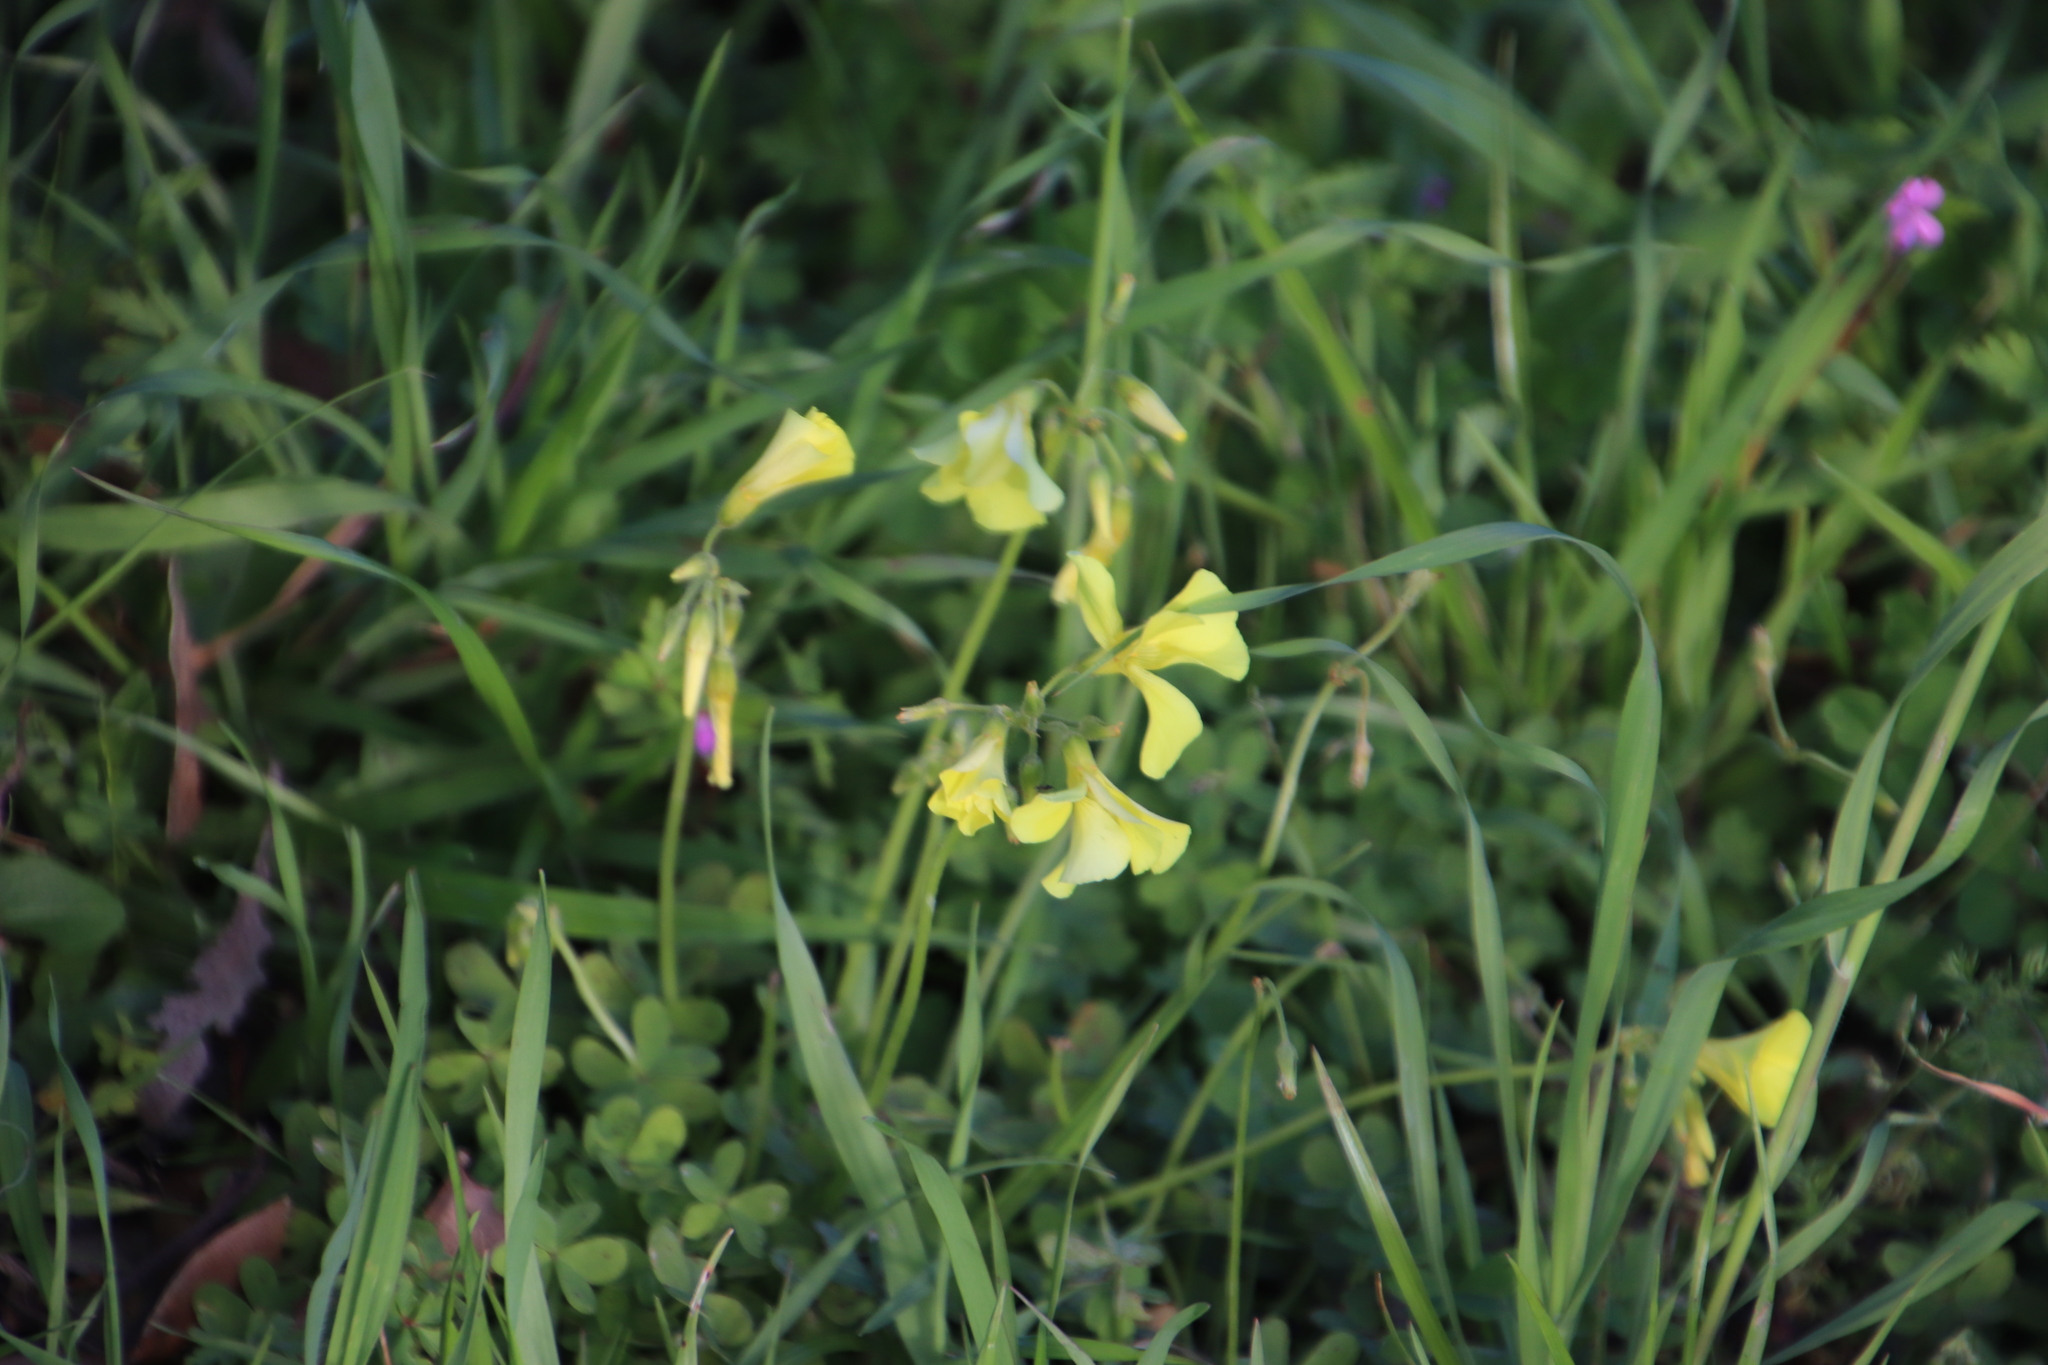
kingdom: Plantae
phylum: Tracheophyta
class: Magnoliopsida
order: Oxalidales
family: Oxalidaceae
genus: Oxalis
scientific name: Oxalis pes-caprae
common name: Bermuda-buttercup
